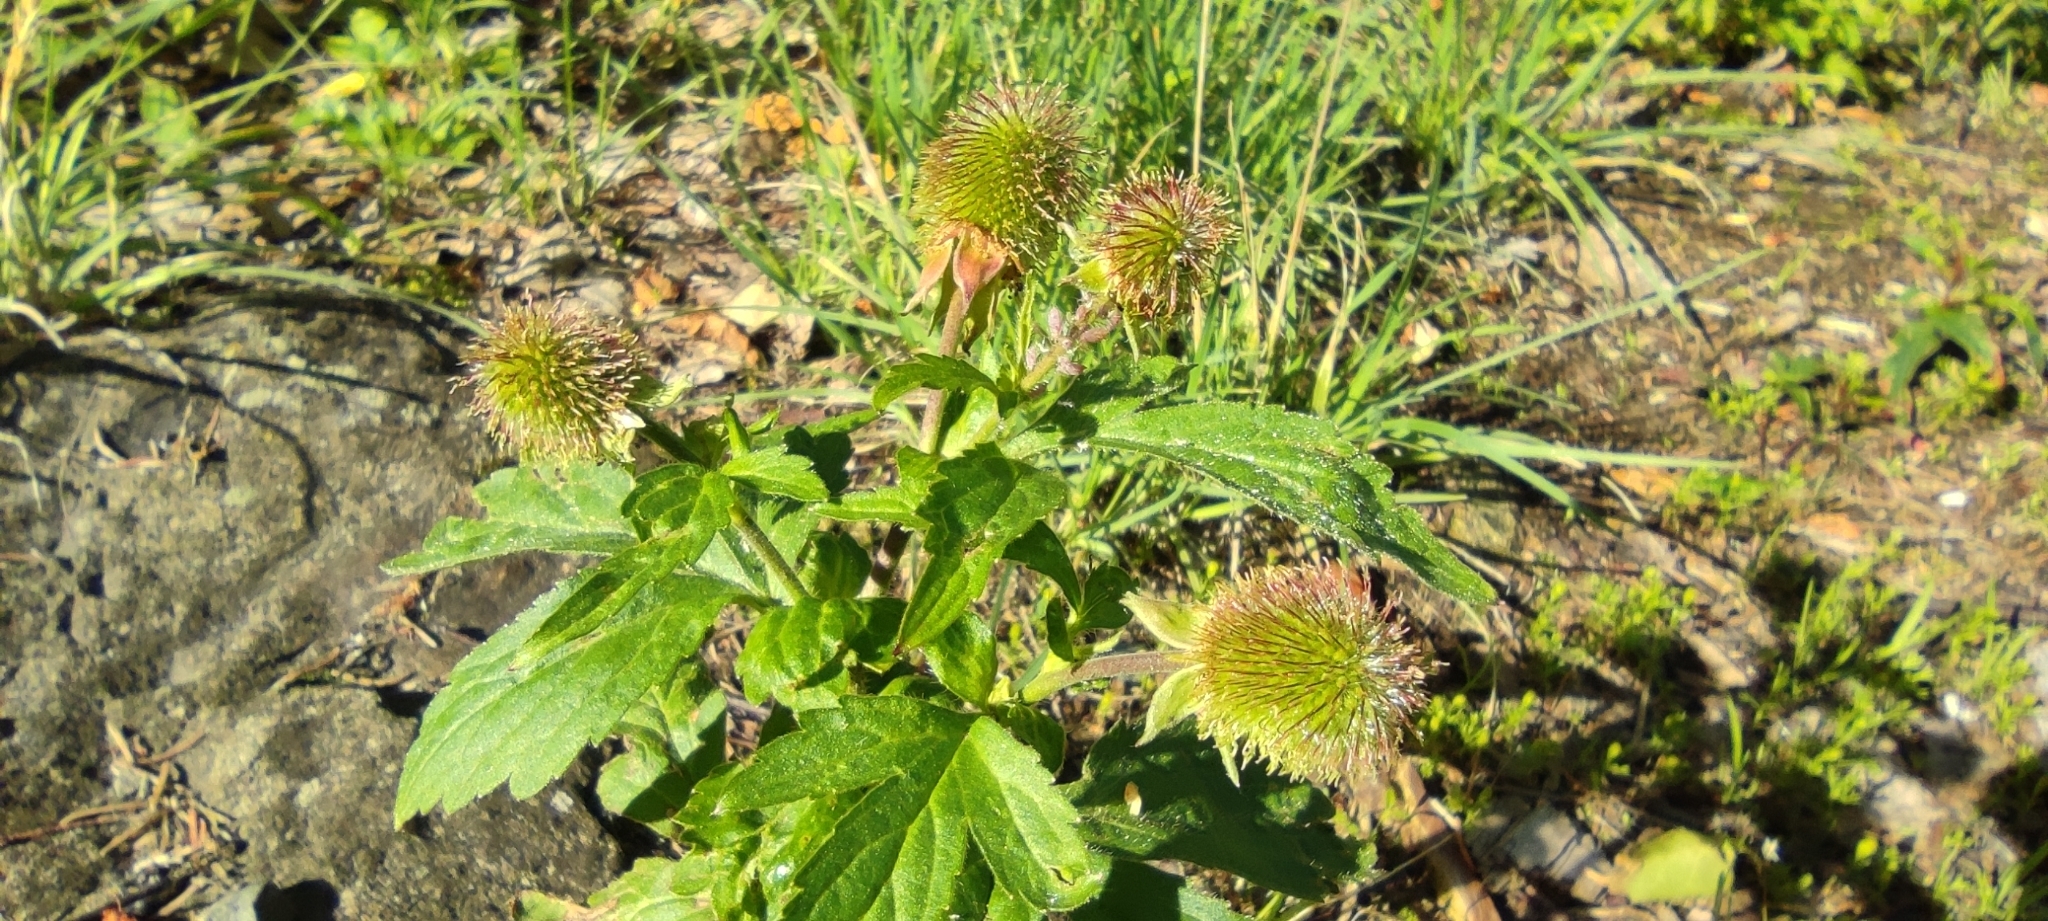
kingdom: Plantae
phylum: Tracheophyta
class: Magnoliopsida
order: Rosales
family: Rosaceae
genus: Geum
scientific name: Geum macrophyllum
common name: Large-leaved avens
